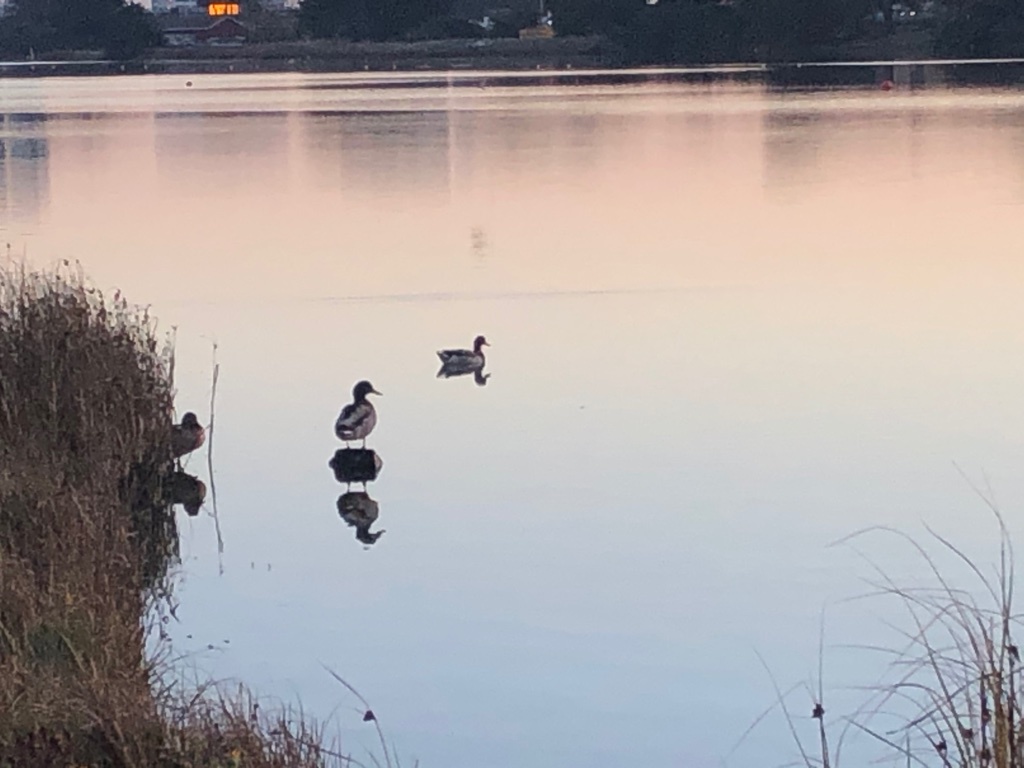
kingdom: Animalia
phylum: Chordata
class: Aves
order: Anseriformes
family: Anatidae
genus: Anas
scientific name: Anas platyrhynchos
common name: Mallard
